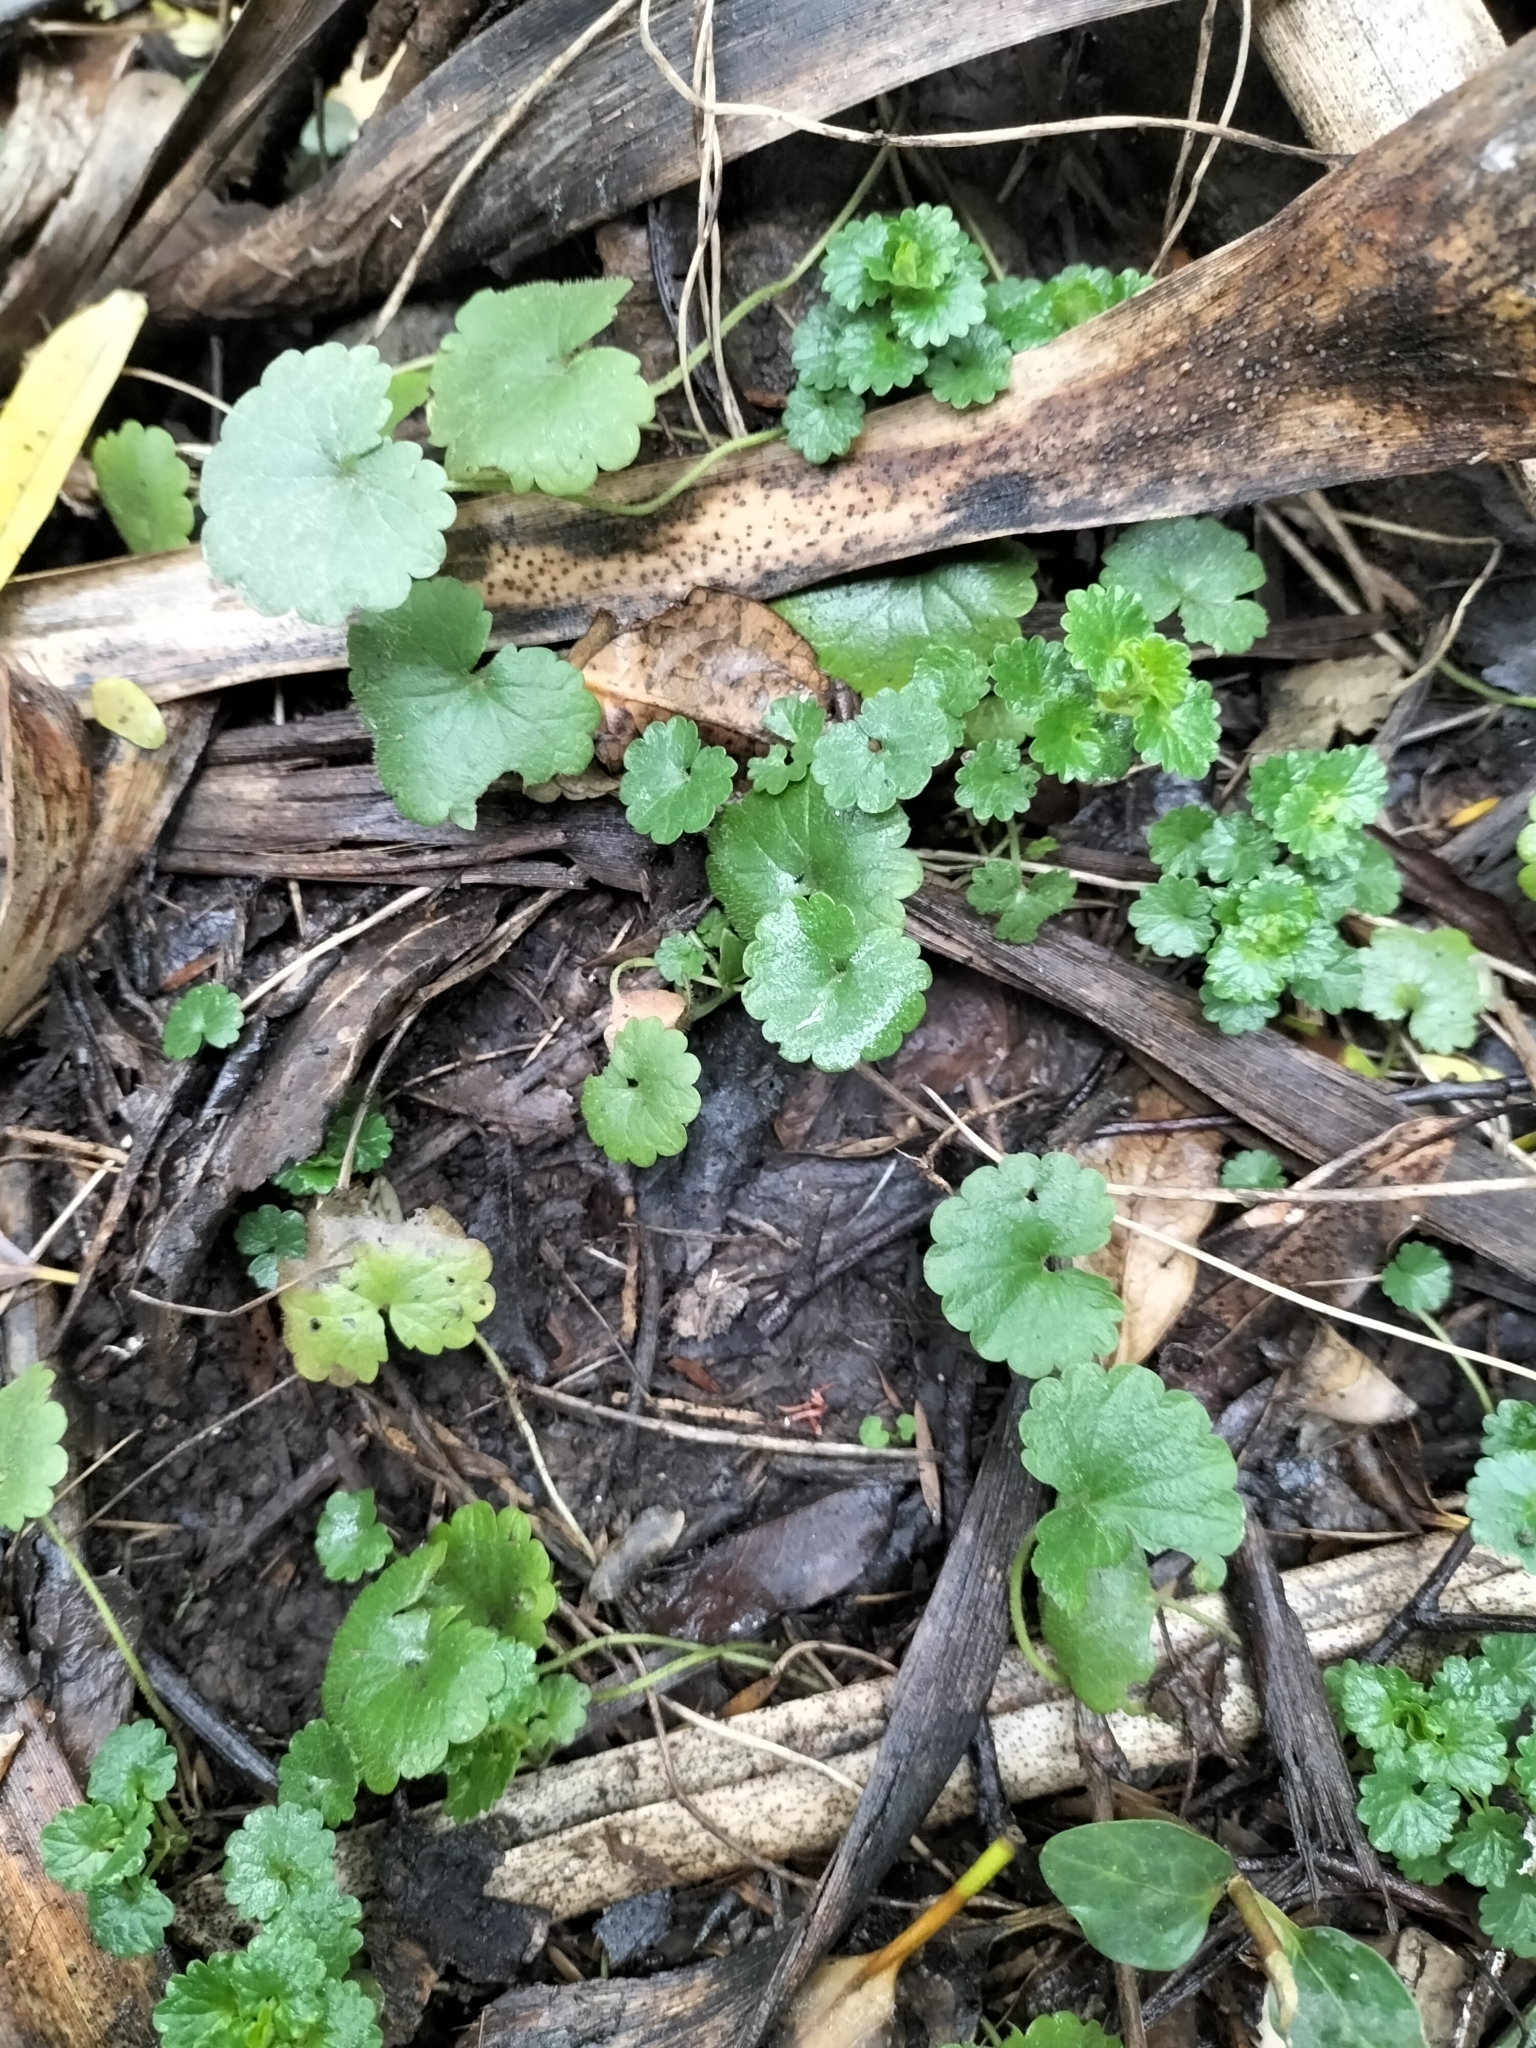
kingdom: Plantae
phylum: Tracheophyta
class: Magnoliopsida
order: Lamiales
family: Lamiaceae
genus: Glechoma
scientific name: Glechoma hederacea
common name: Ground ivy
